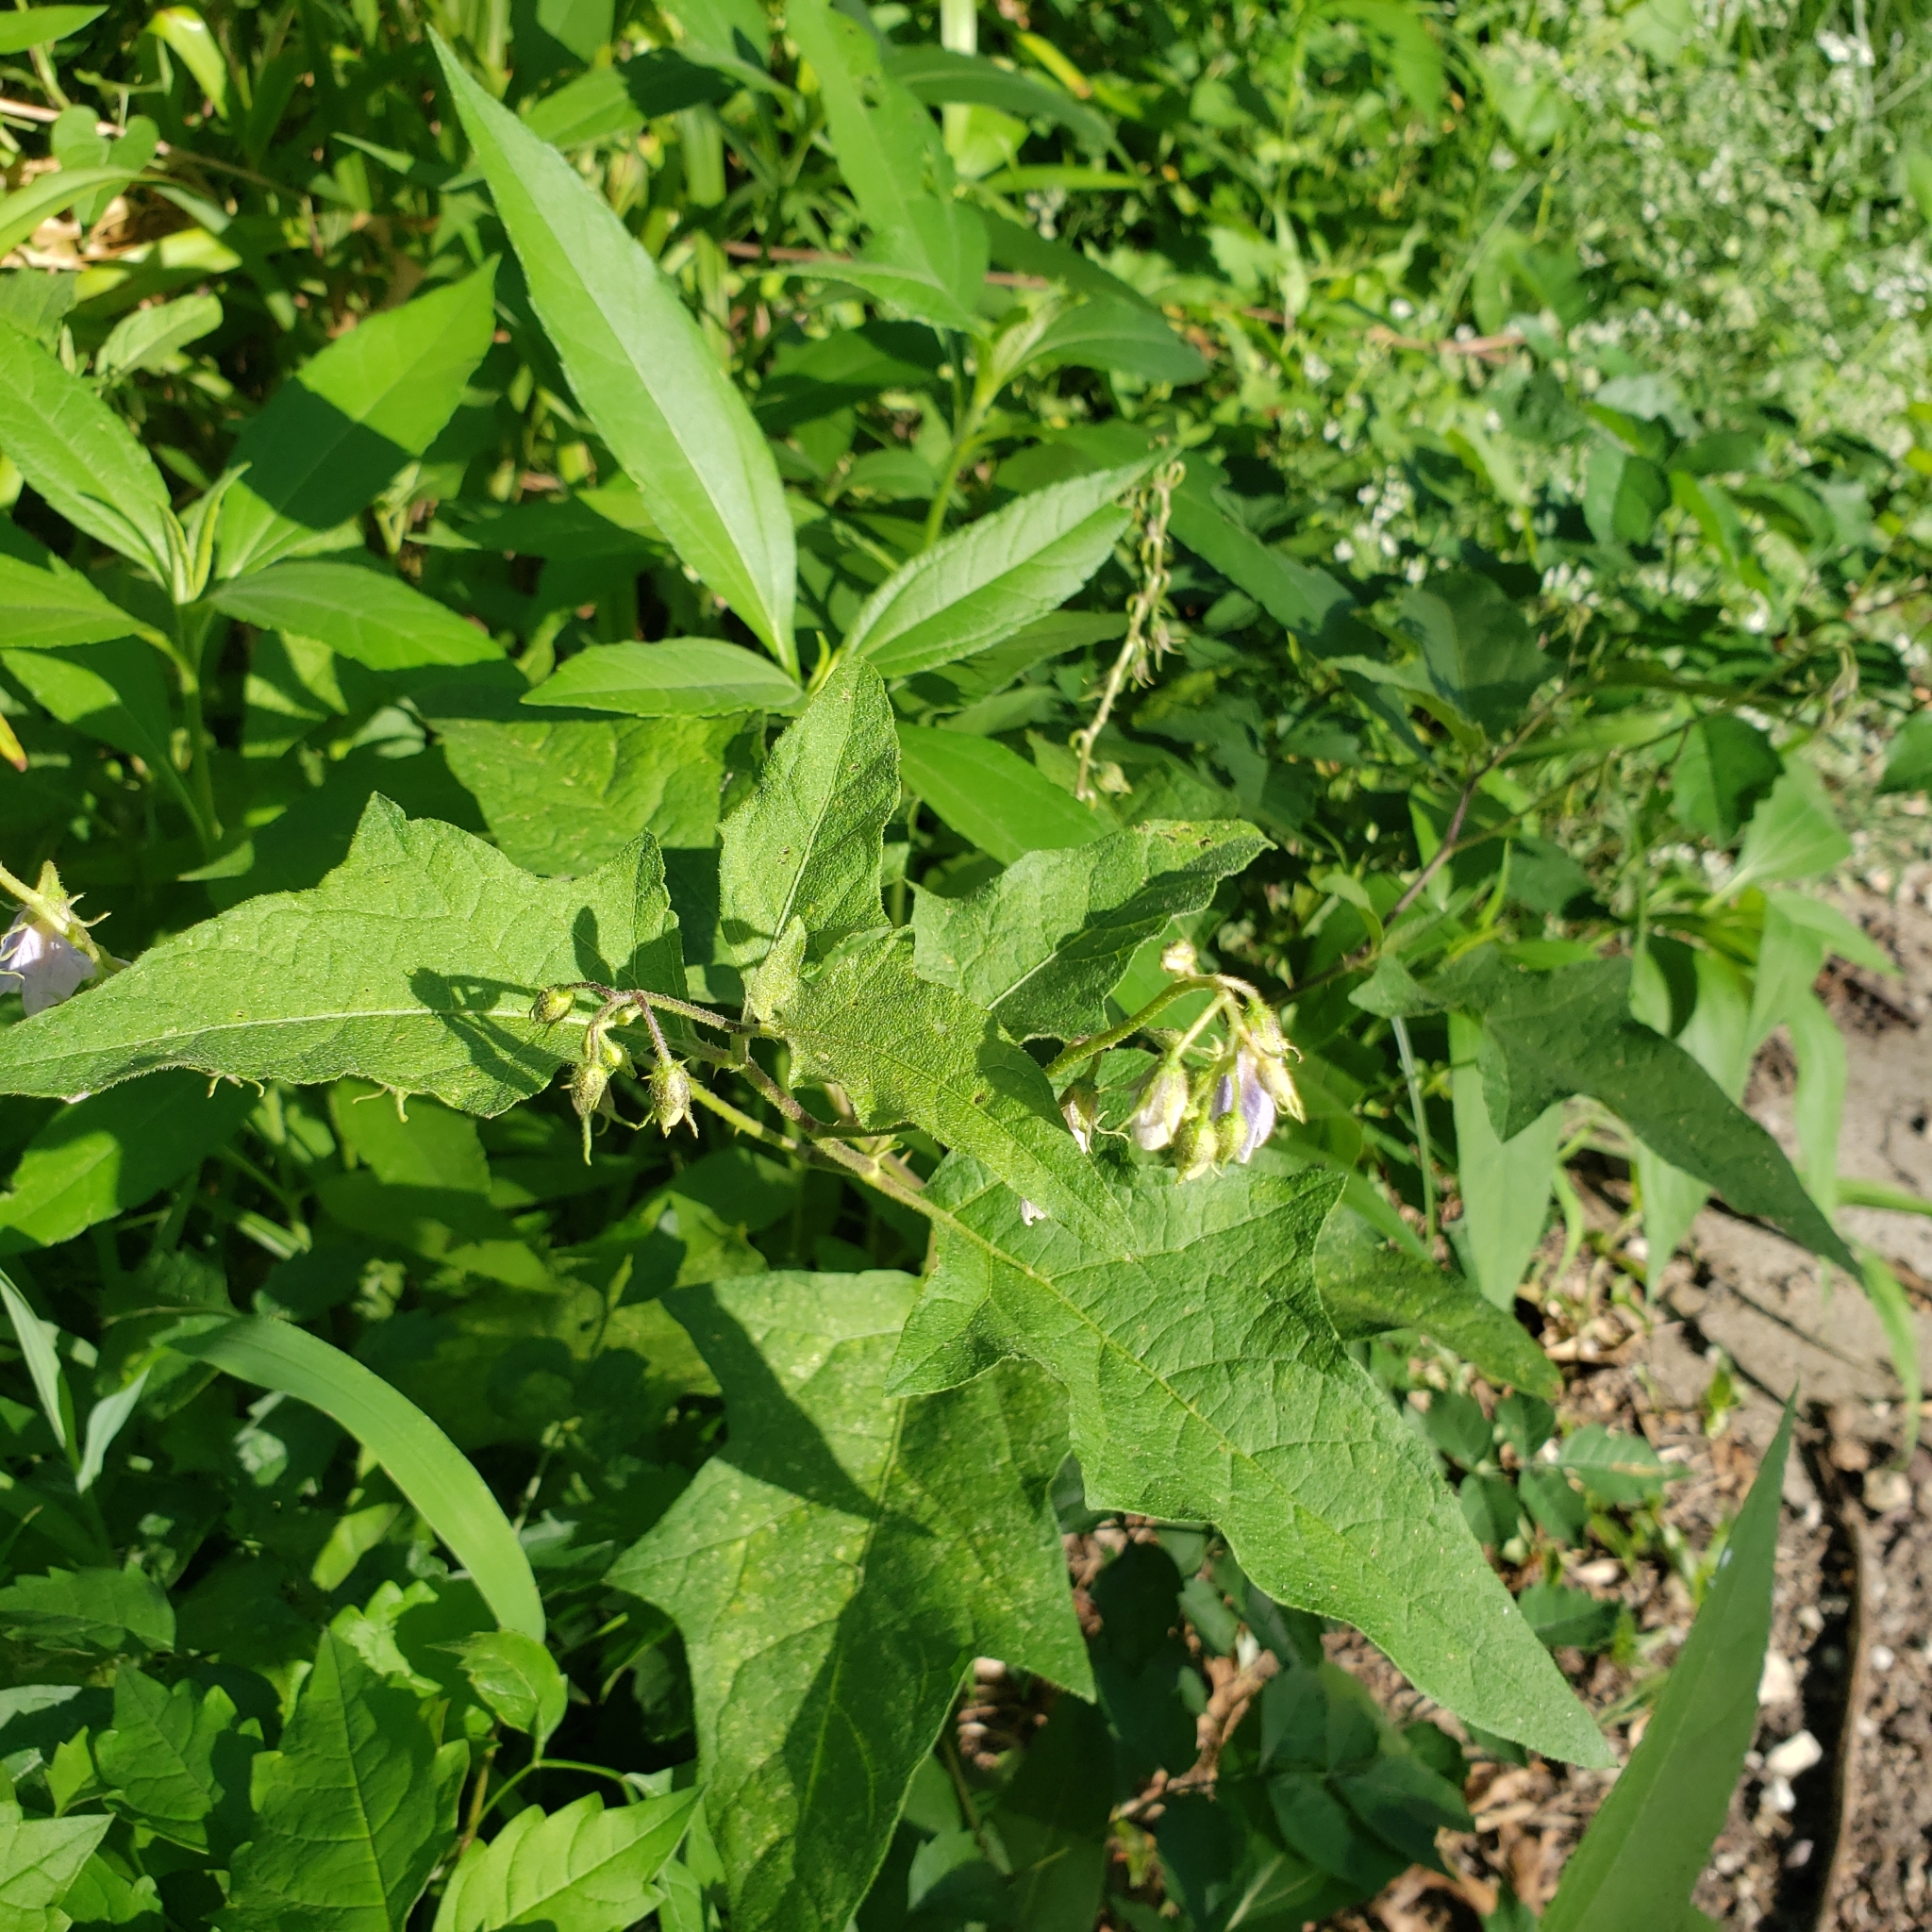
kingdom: Plantae
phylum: Tracheophyta
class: Magnoliopsida
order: Solanales
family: Solanaceae
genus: Solanum
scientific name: Solanum carolinense
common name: Horse-nettle
